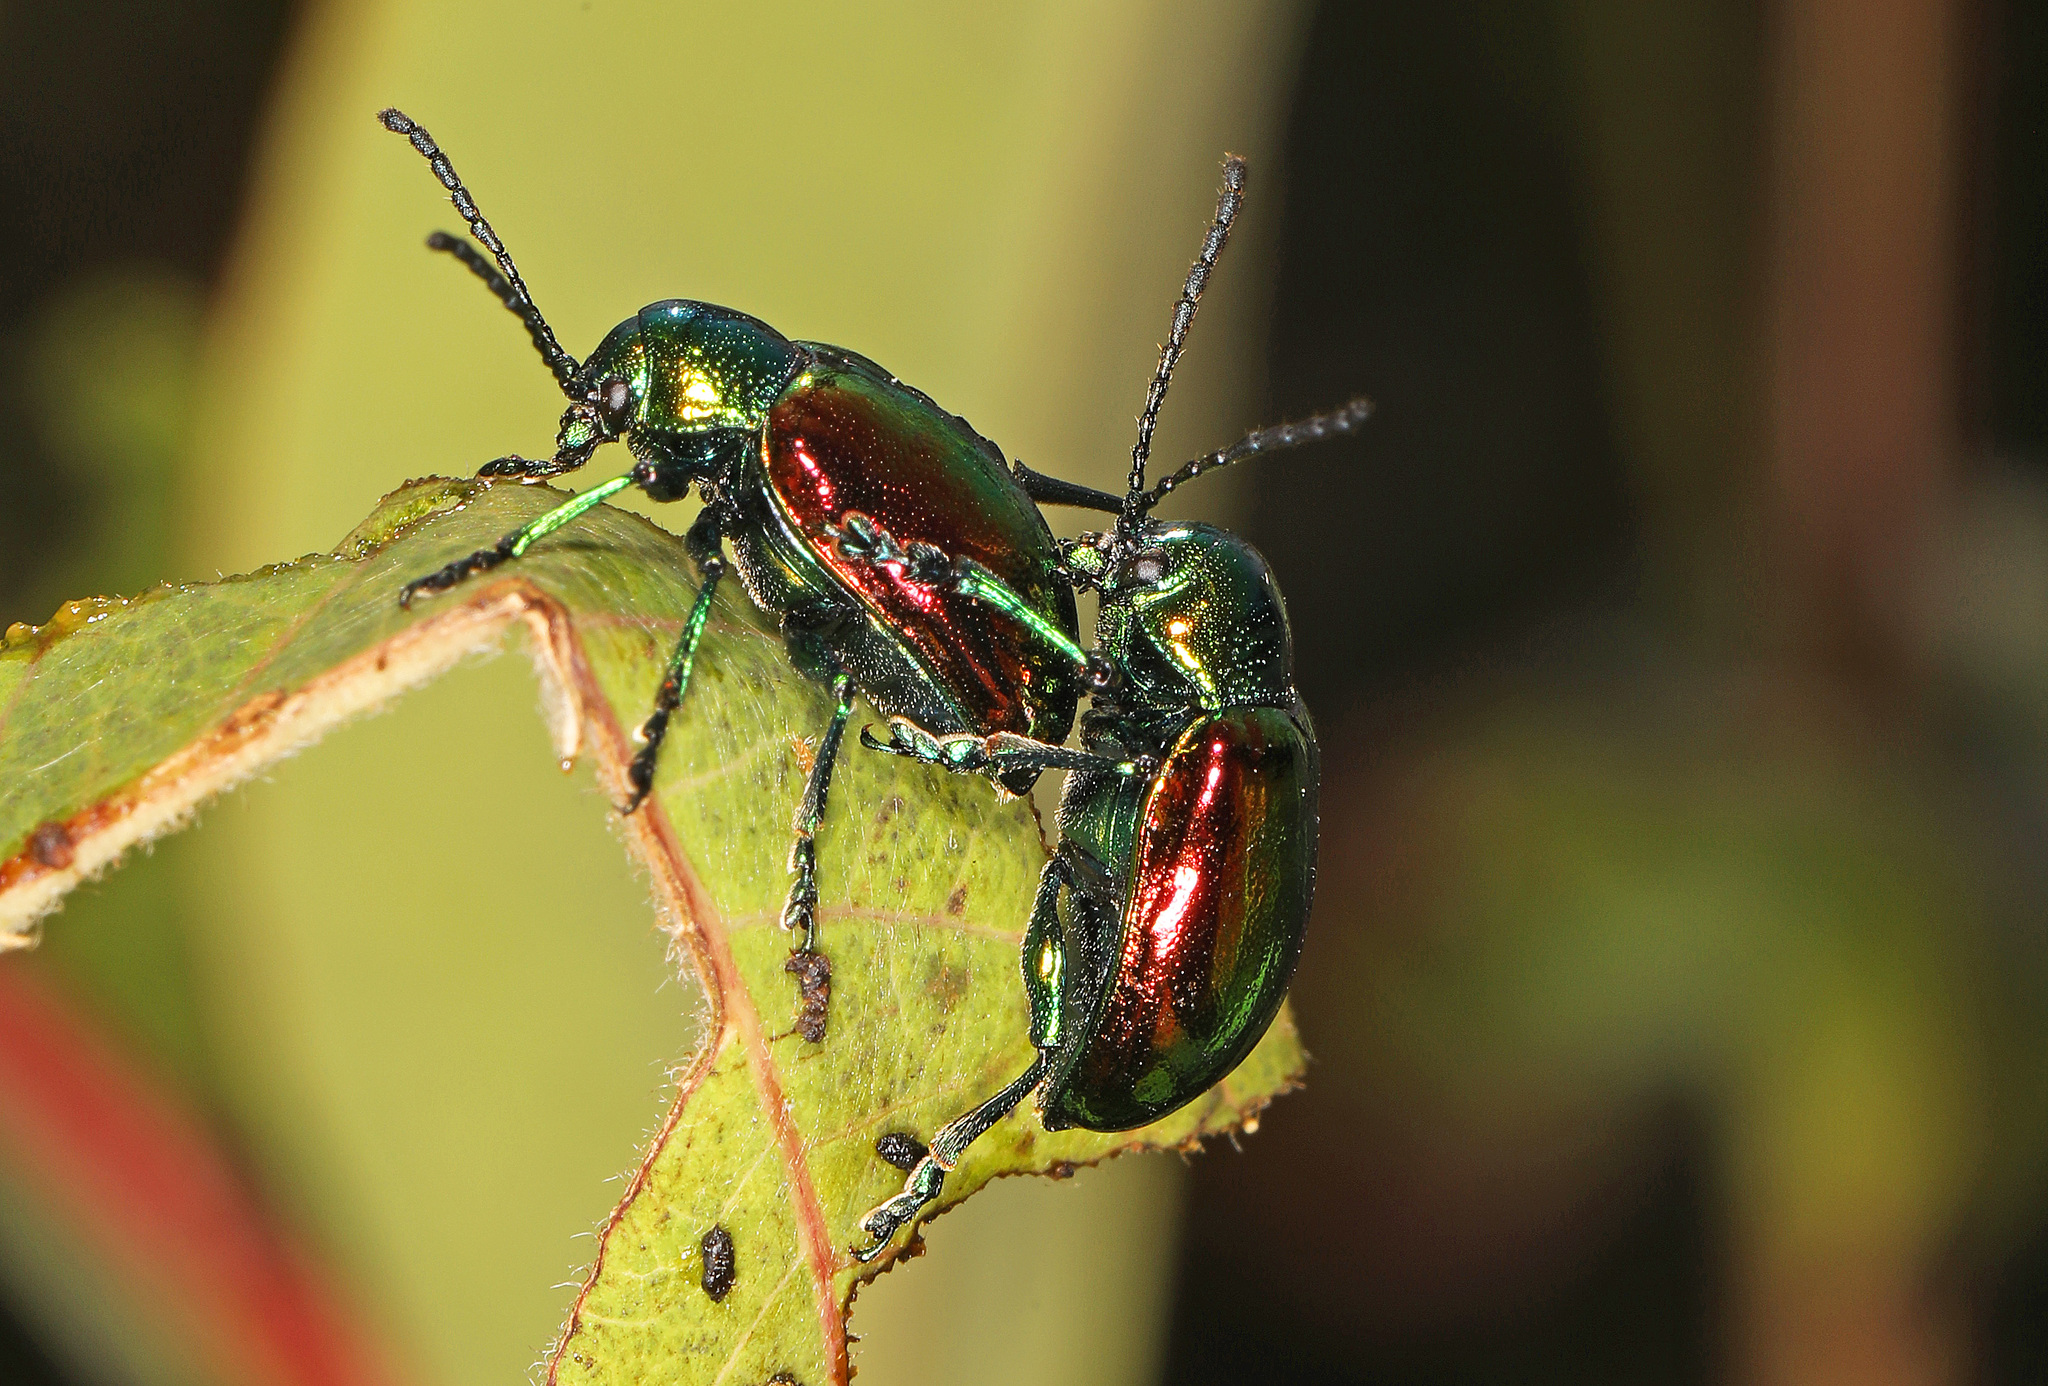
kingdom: Animalia
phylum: Arthropoda
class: Insecta
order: Coleoptera
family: Chrysomelidae
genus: Chrysochus
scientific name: Chrysochus auratus
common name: Dogbane leaf beetle
